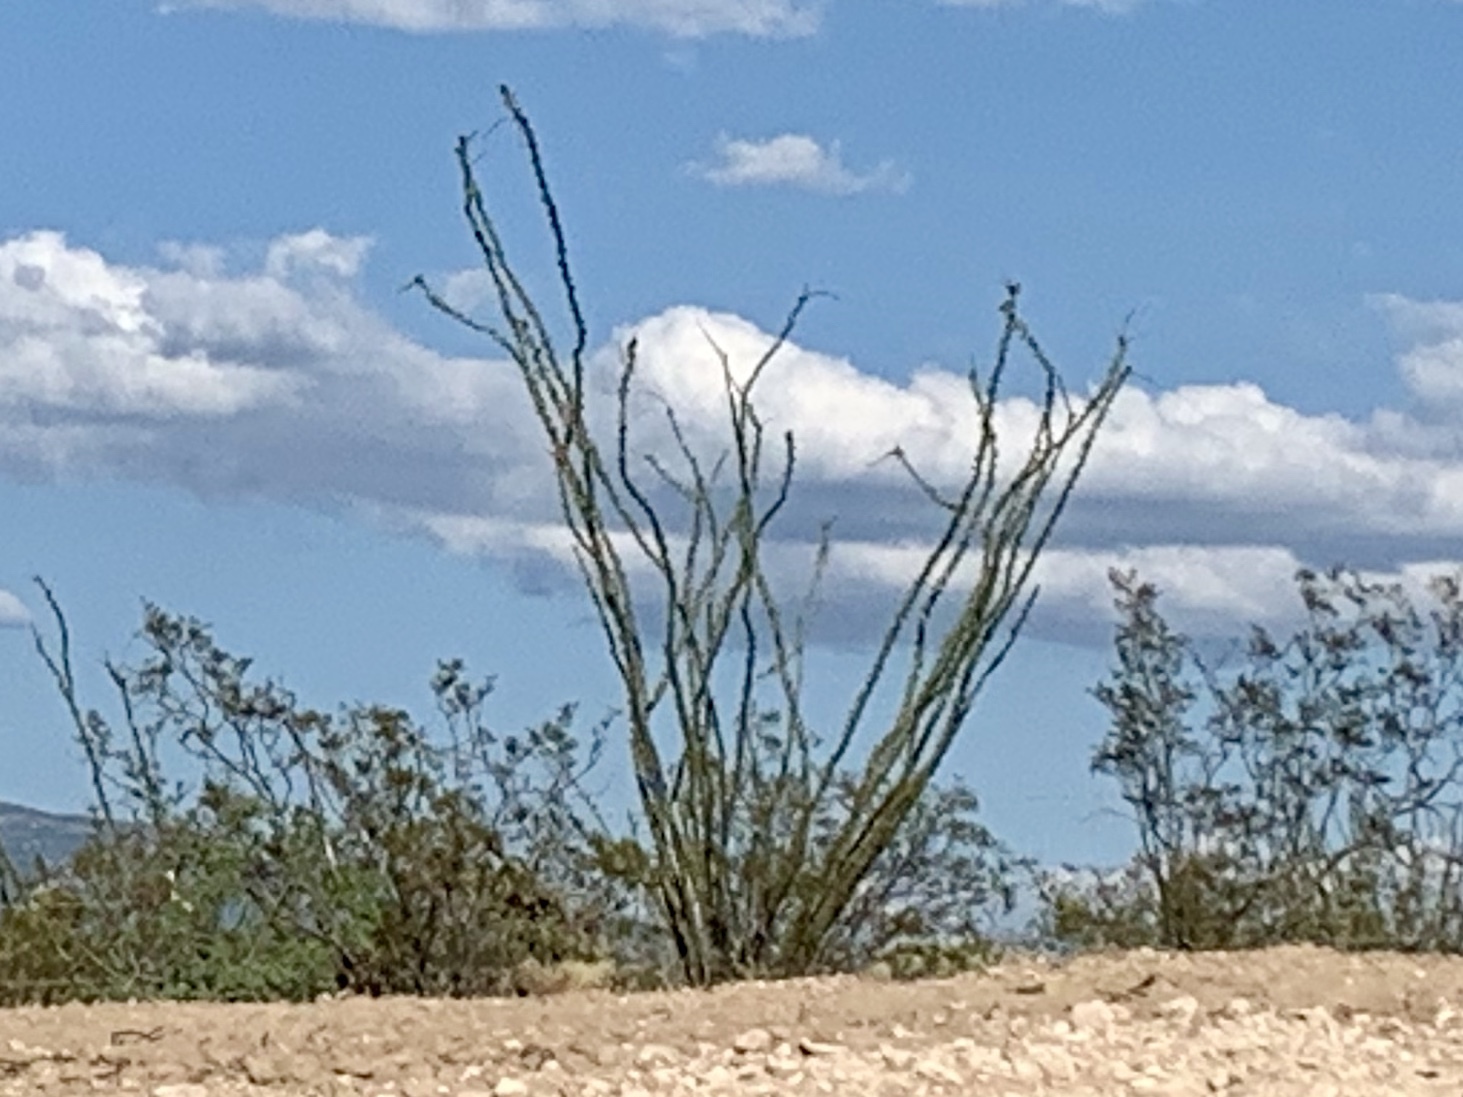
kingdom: Plantae
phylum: Tracheophyta
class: Magnoliopsida
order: Ericales
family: Fouquieriaceae
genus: Fouquieria
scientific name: Fouquieria splendens
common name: Vine-cactus
